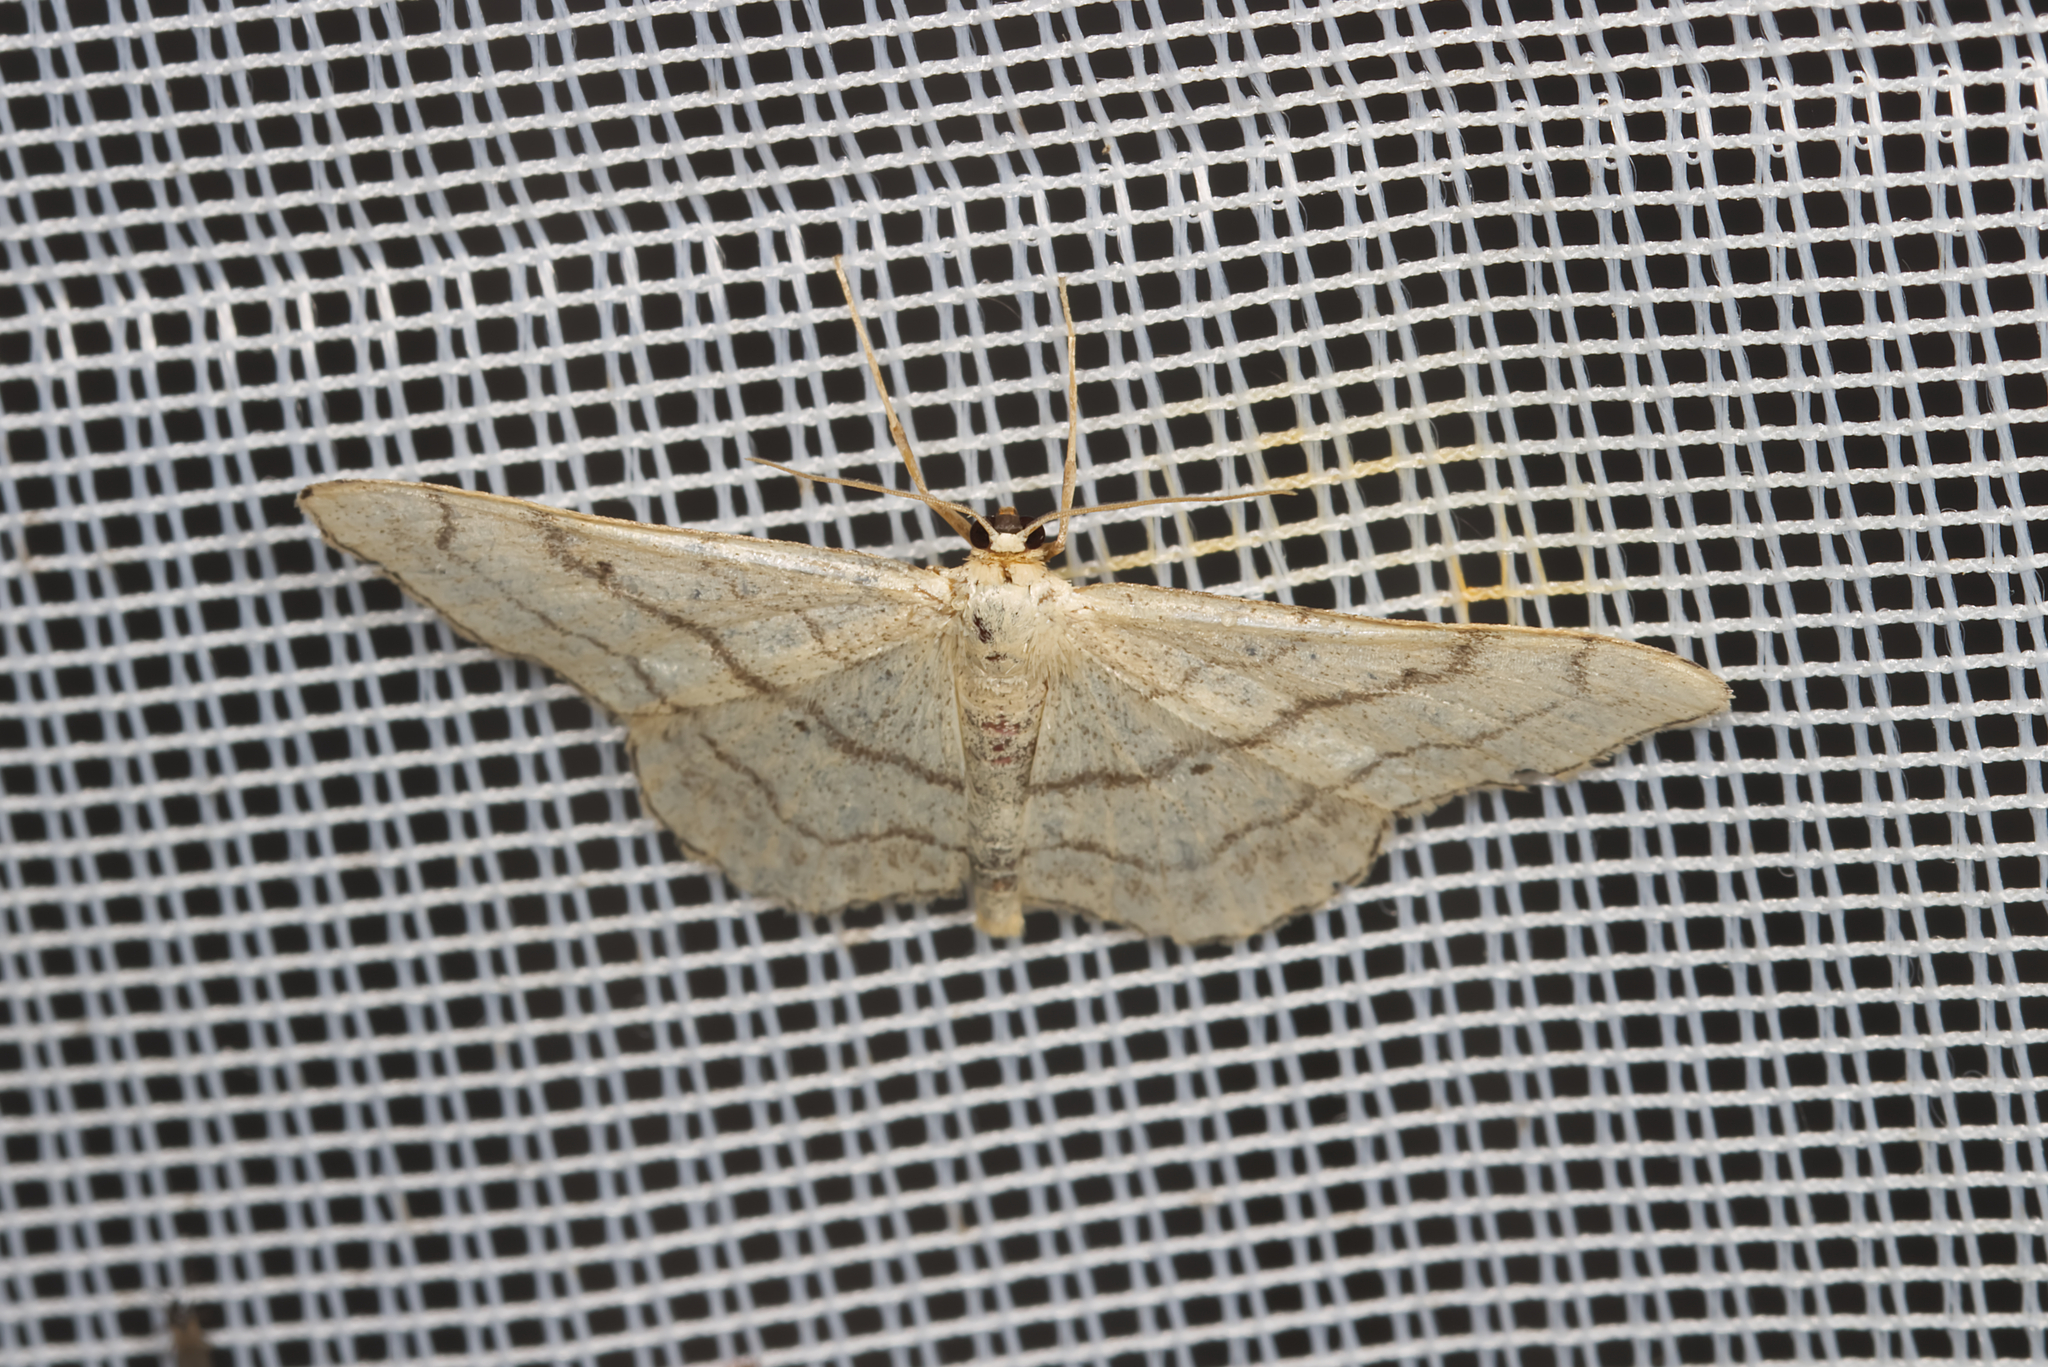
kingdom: Animalia
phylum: Arthropoda
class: Insecta
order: Lepidoptera
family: Geometridae
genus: Idaea
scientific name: Idaea aversata
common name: Riband wave
